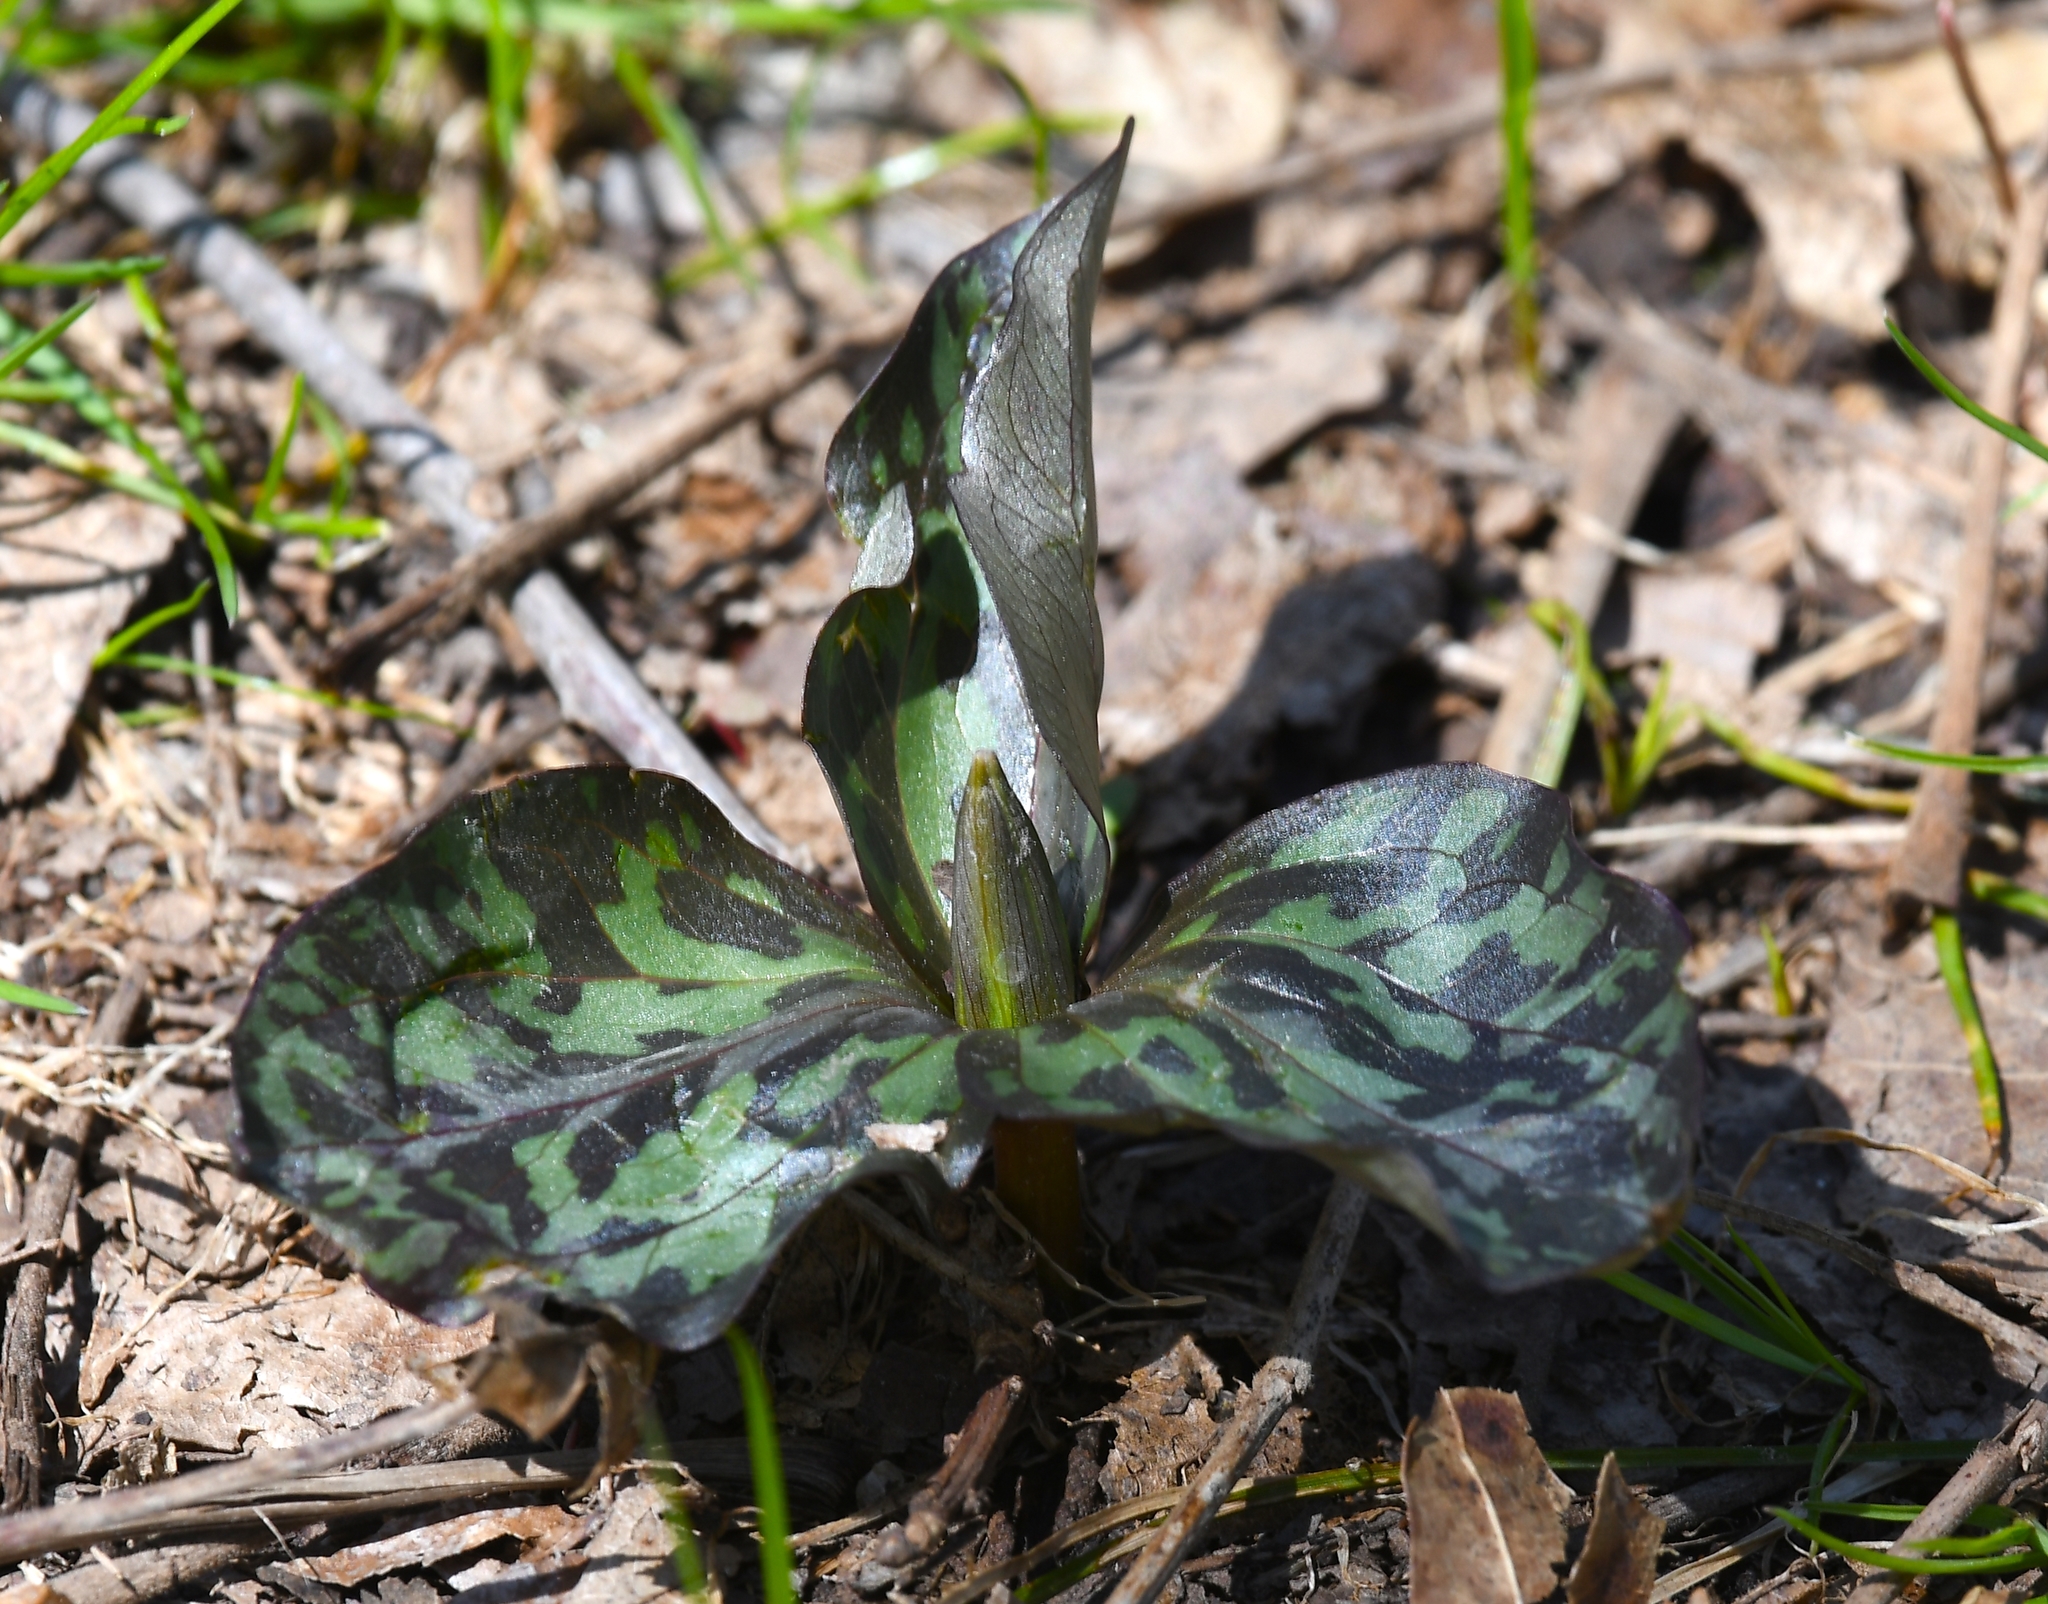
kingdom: Plantae
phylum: Tracheophyta
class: Liliopsida
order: Liliales
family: Melanthiaceae
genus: Trillium
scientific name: Trillium recurvatum
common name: Bloody butcher
